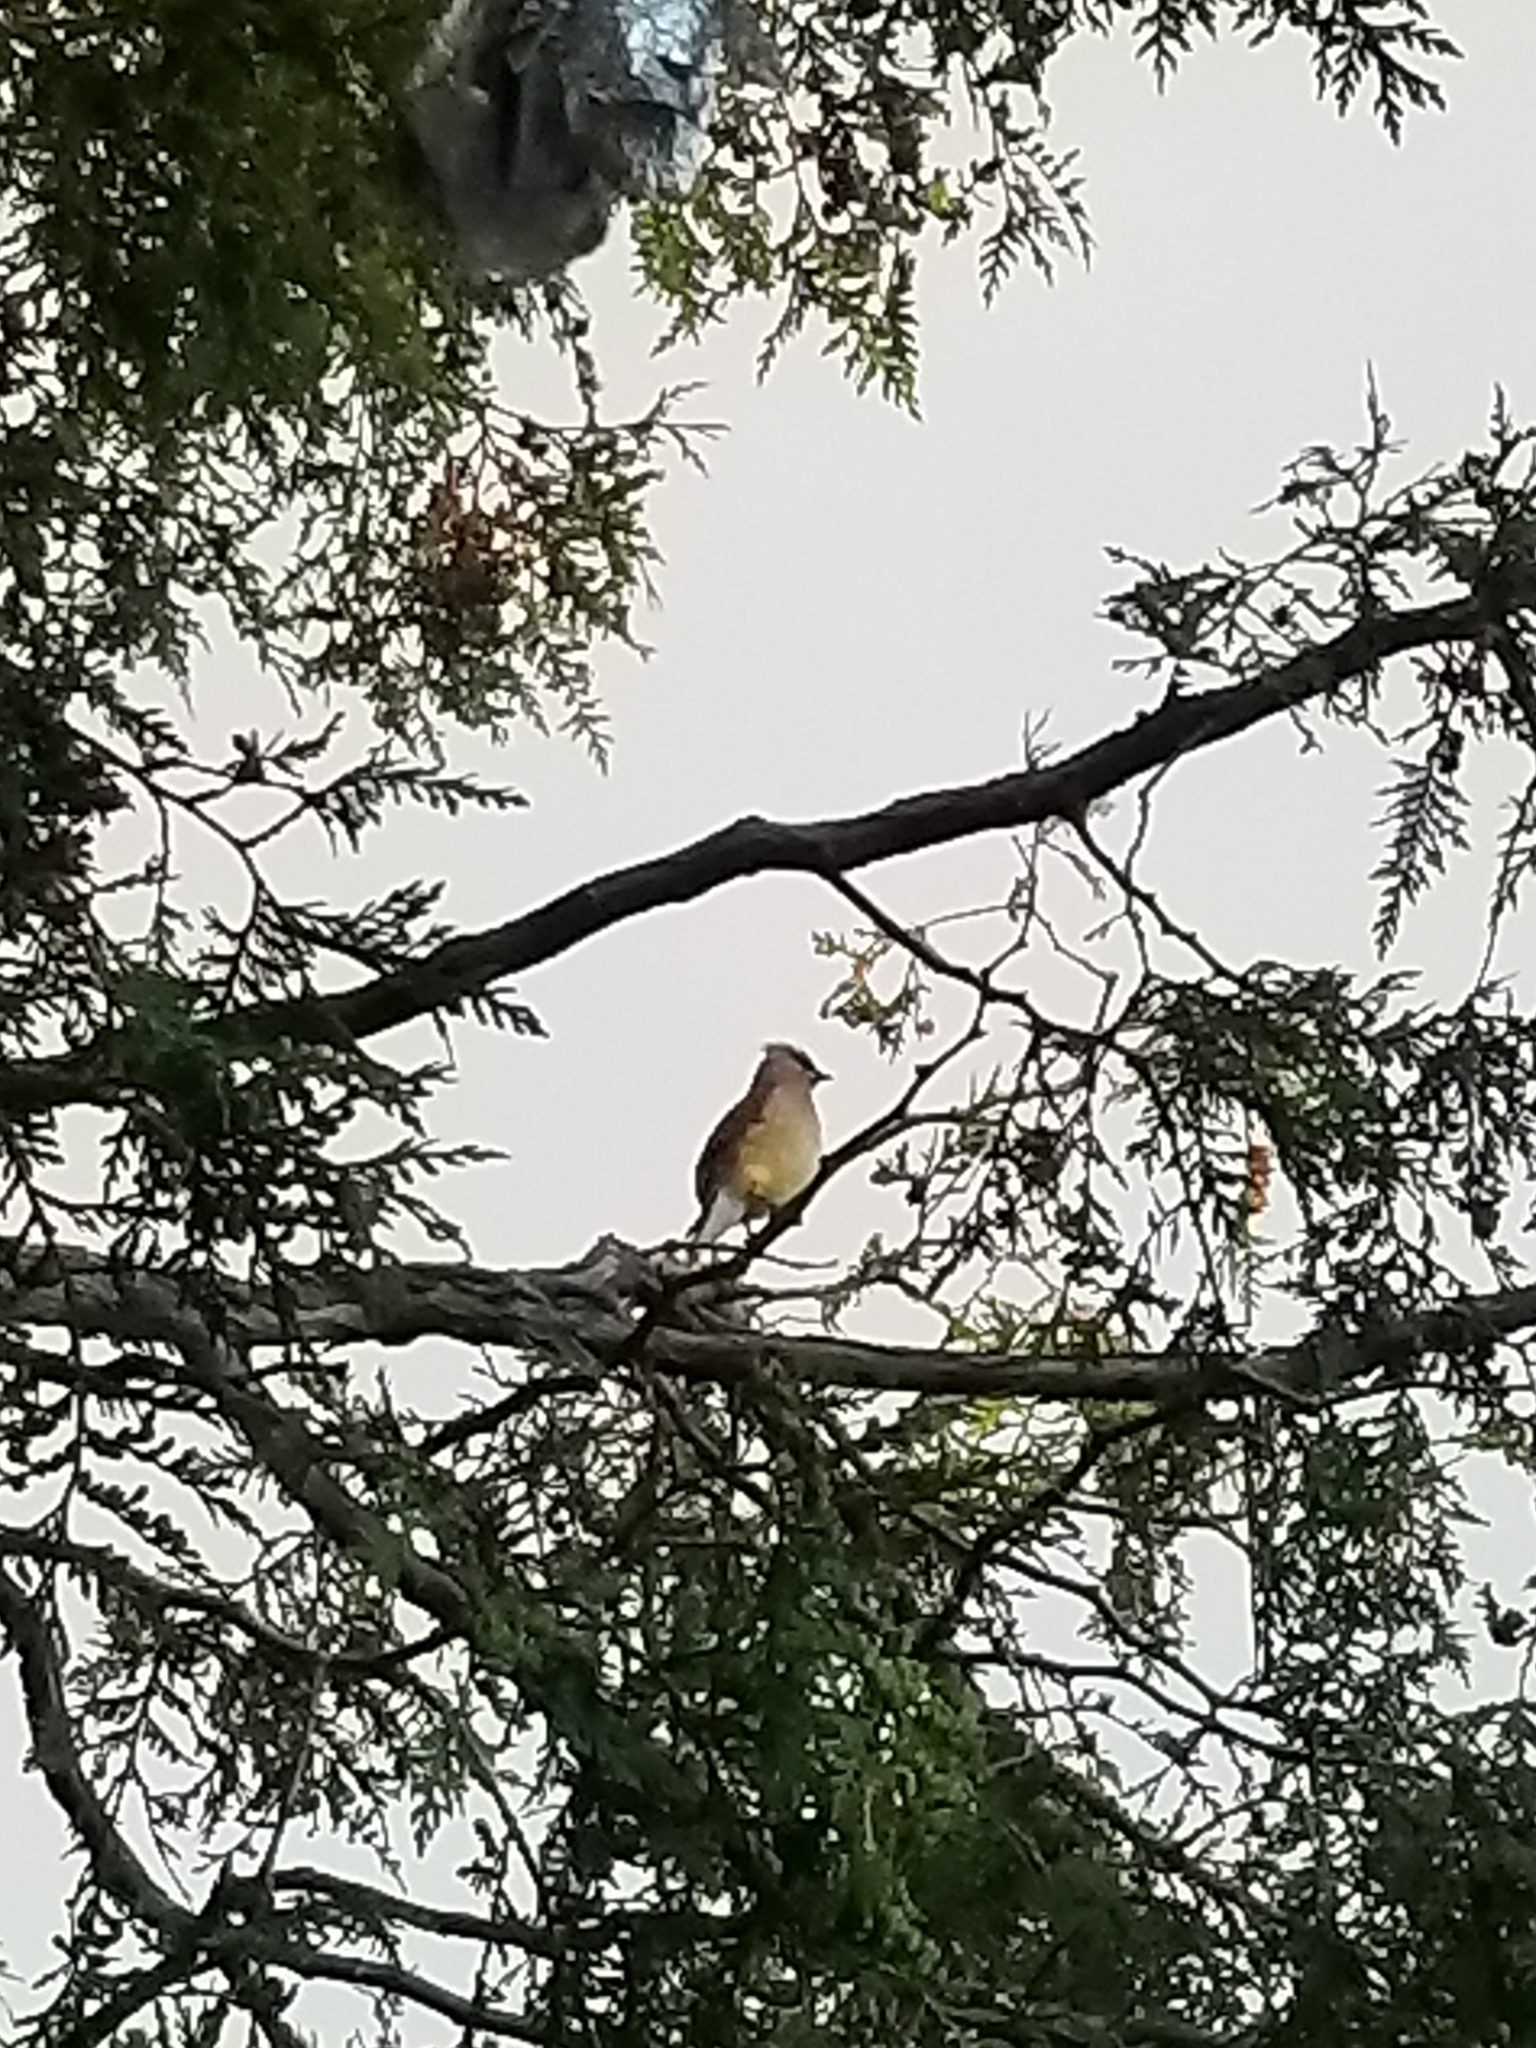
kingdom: Animalia
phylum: Chordata
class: Aves
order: Passeriformes
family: Bombycillidae
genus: Bombycilla
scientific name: Bombycilla cedrorum
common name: Cedar waxwing
